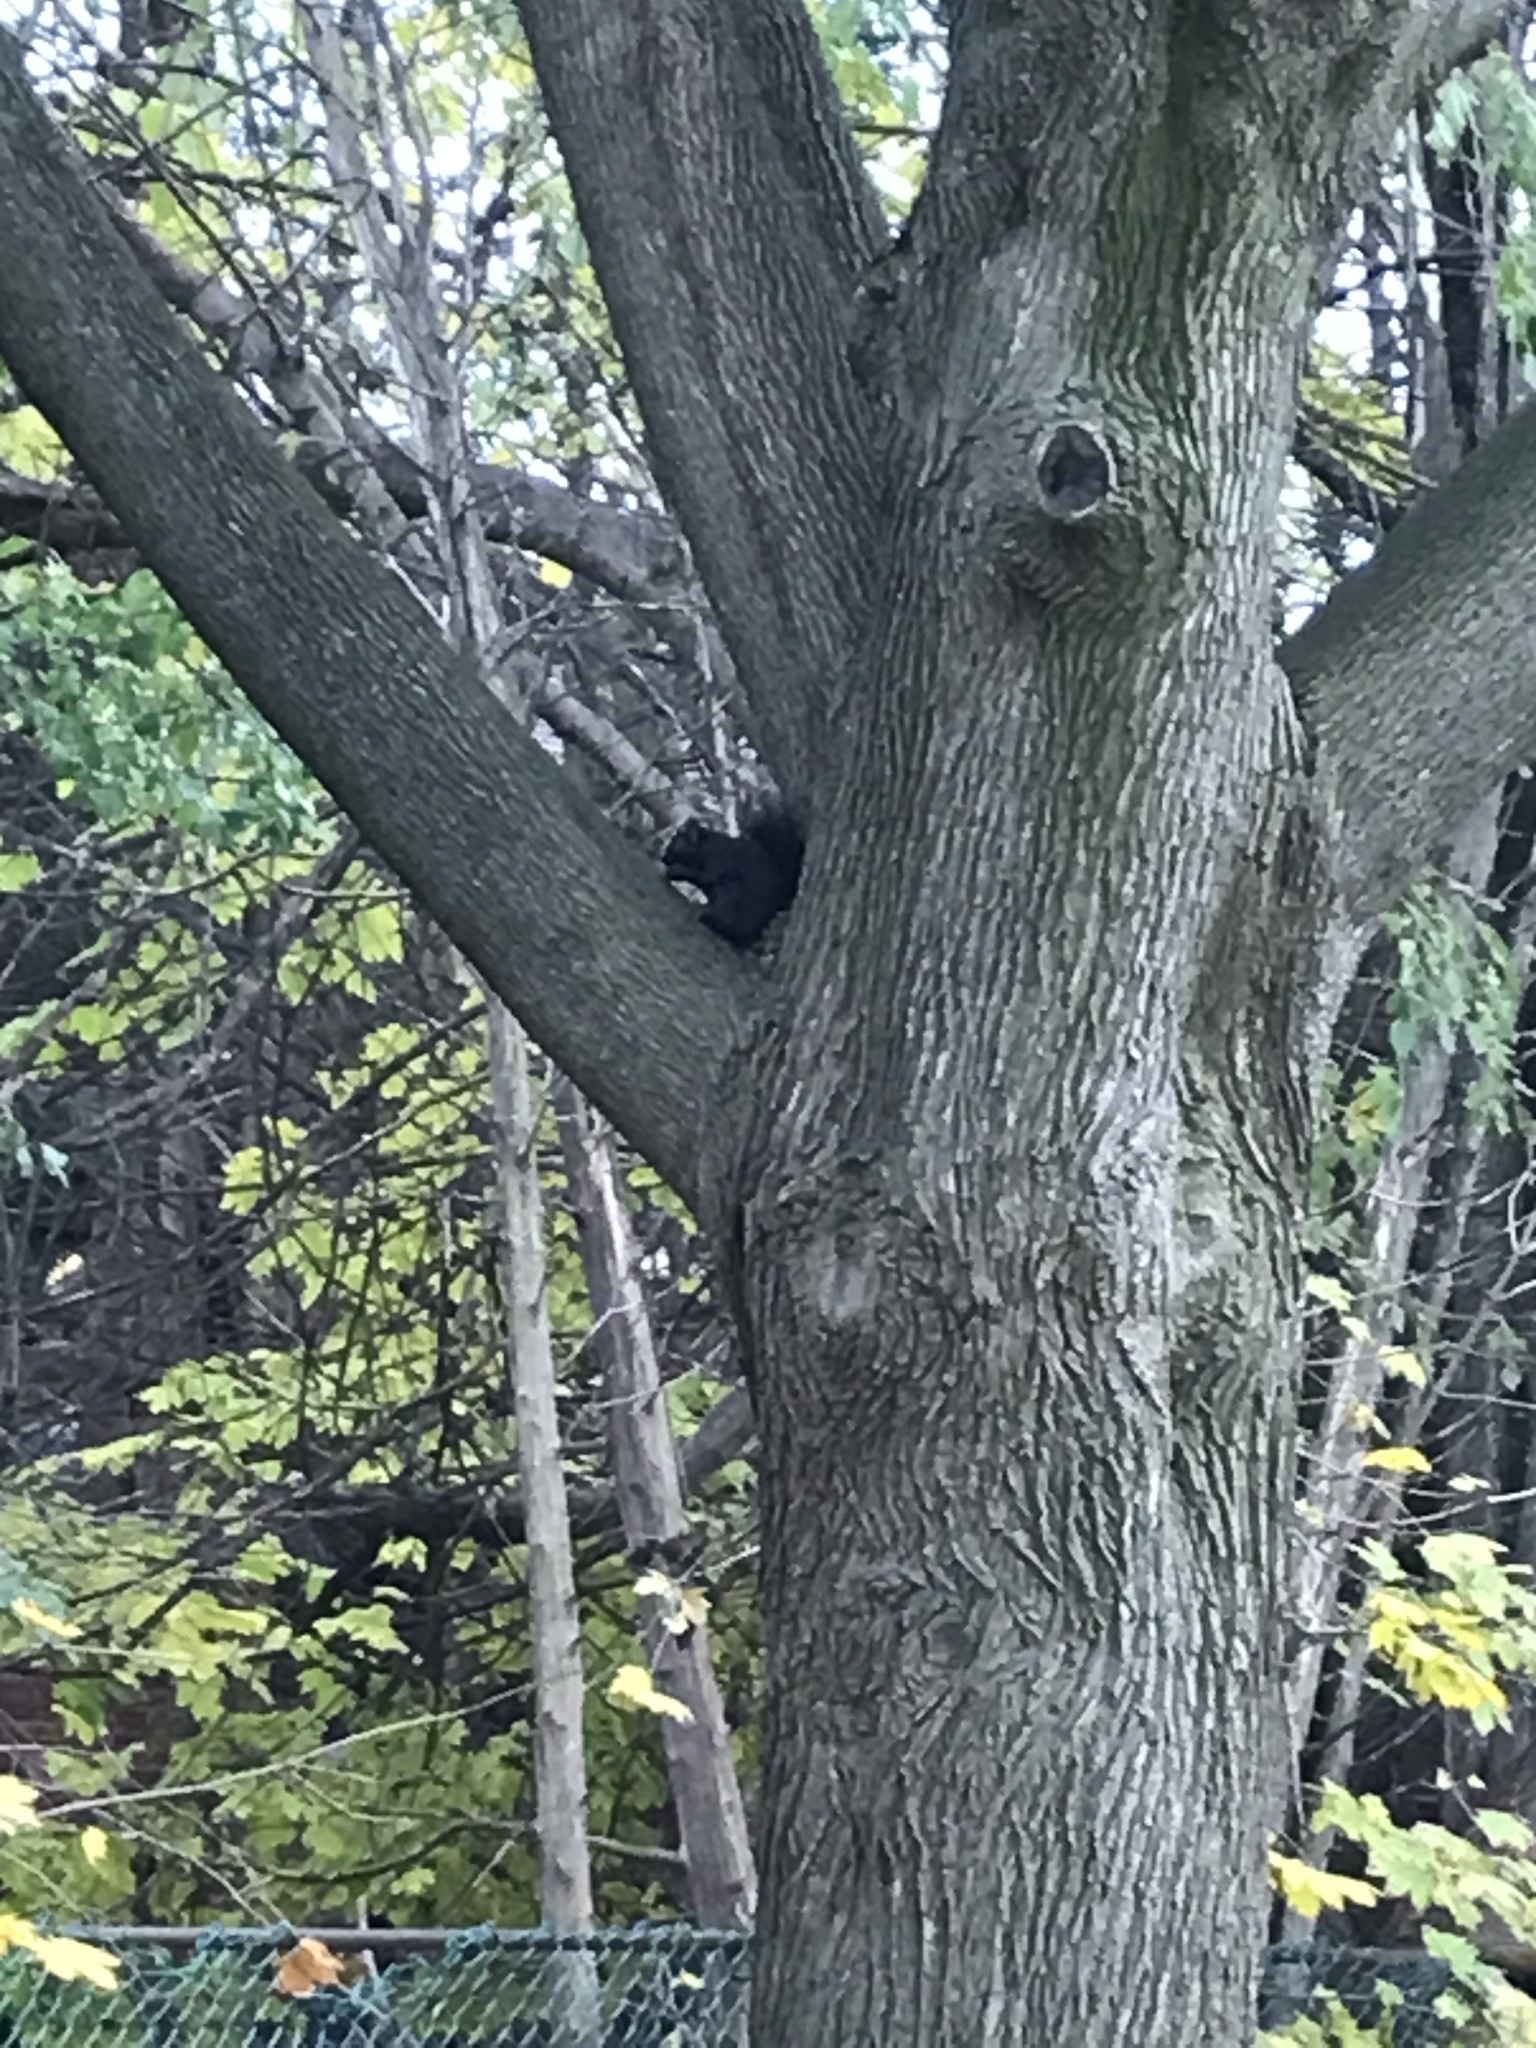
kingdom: Animalia
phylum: Chordata
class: Mammalia
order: Rodentia
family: Sciuridae
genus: Sciurus
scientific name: Sciurus carolinensis
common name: Eastern gray squirrel
